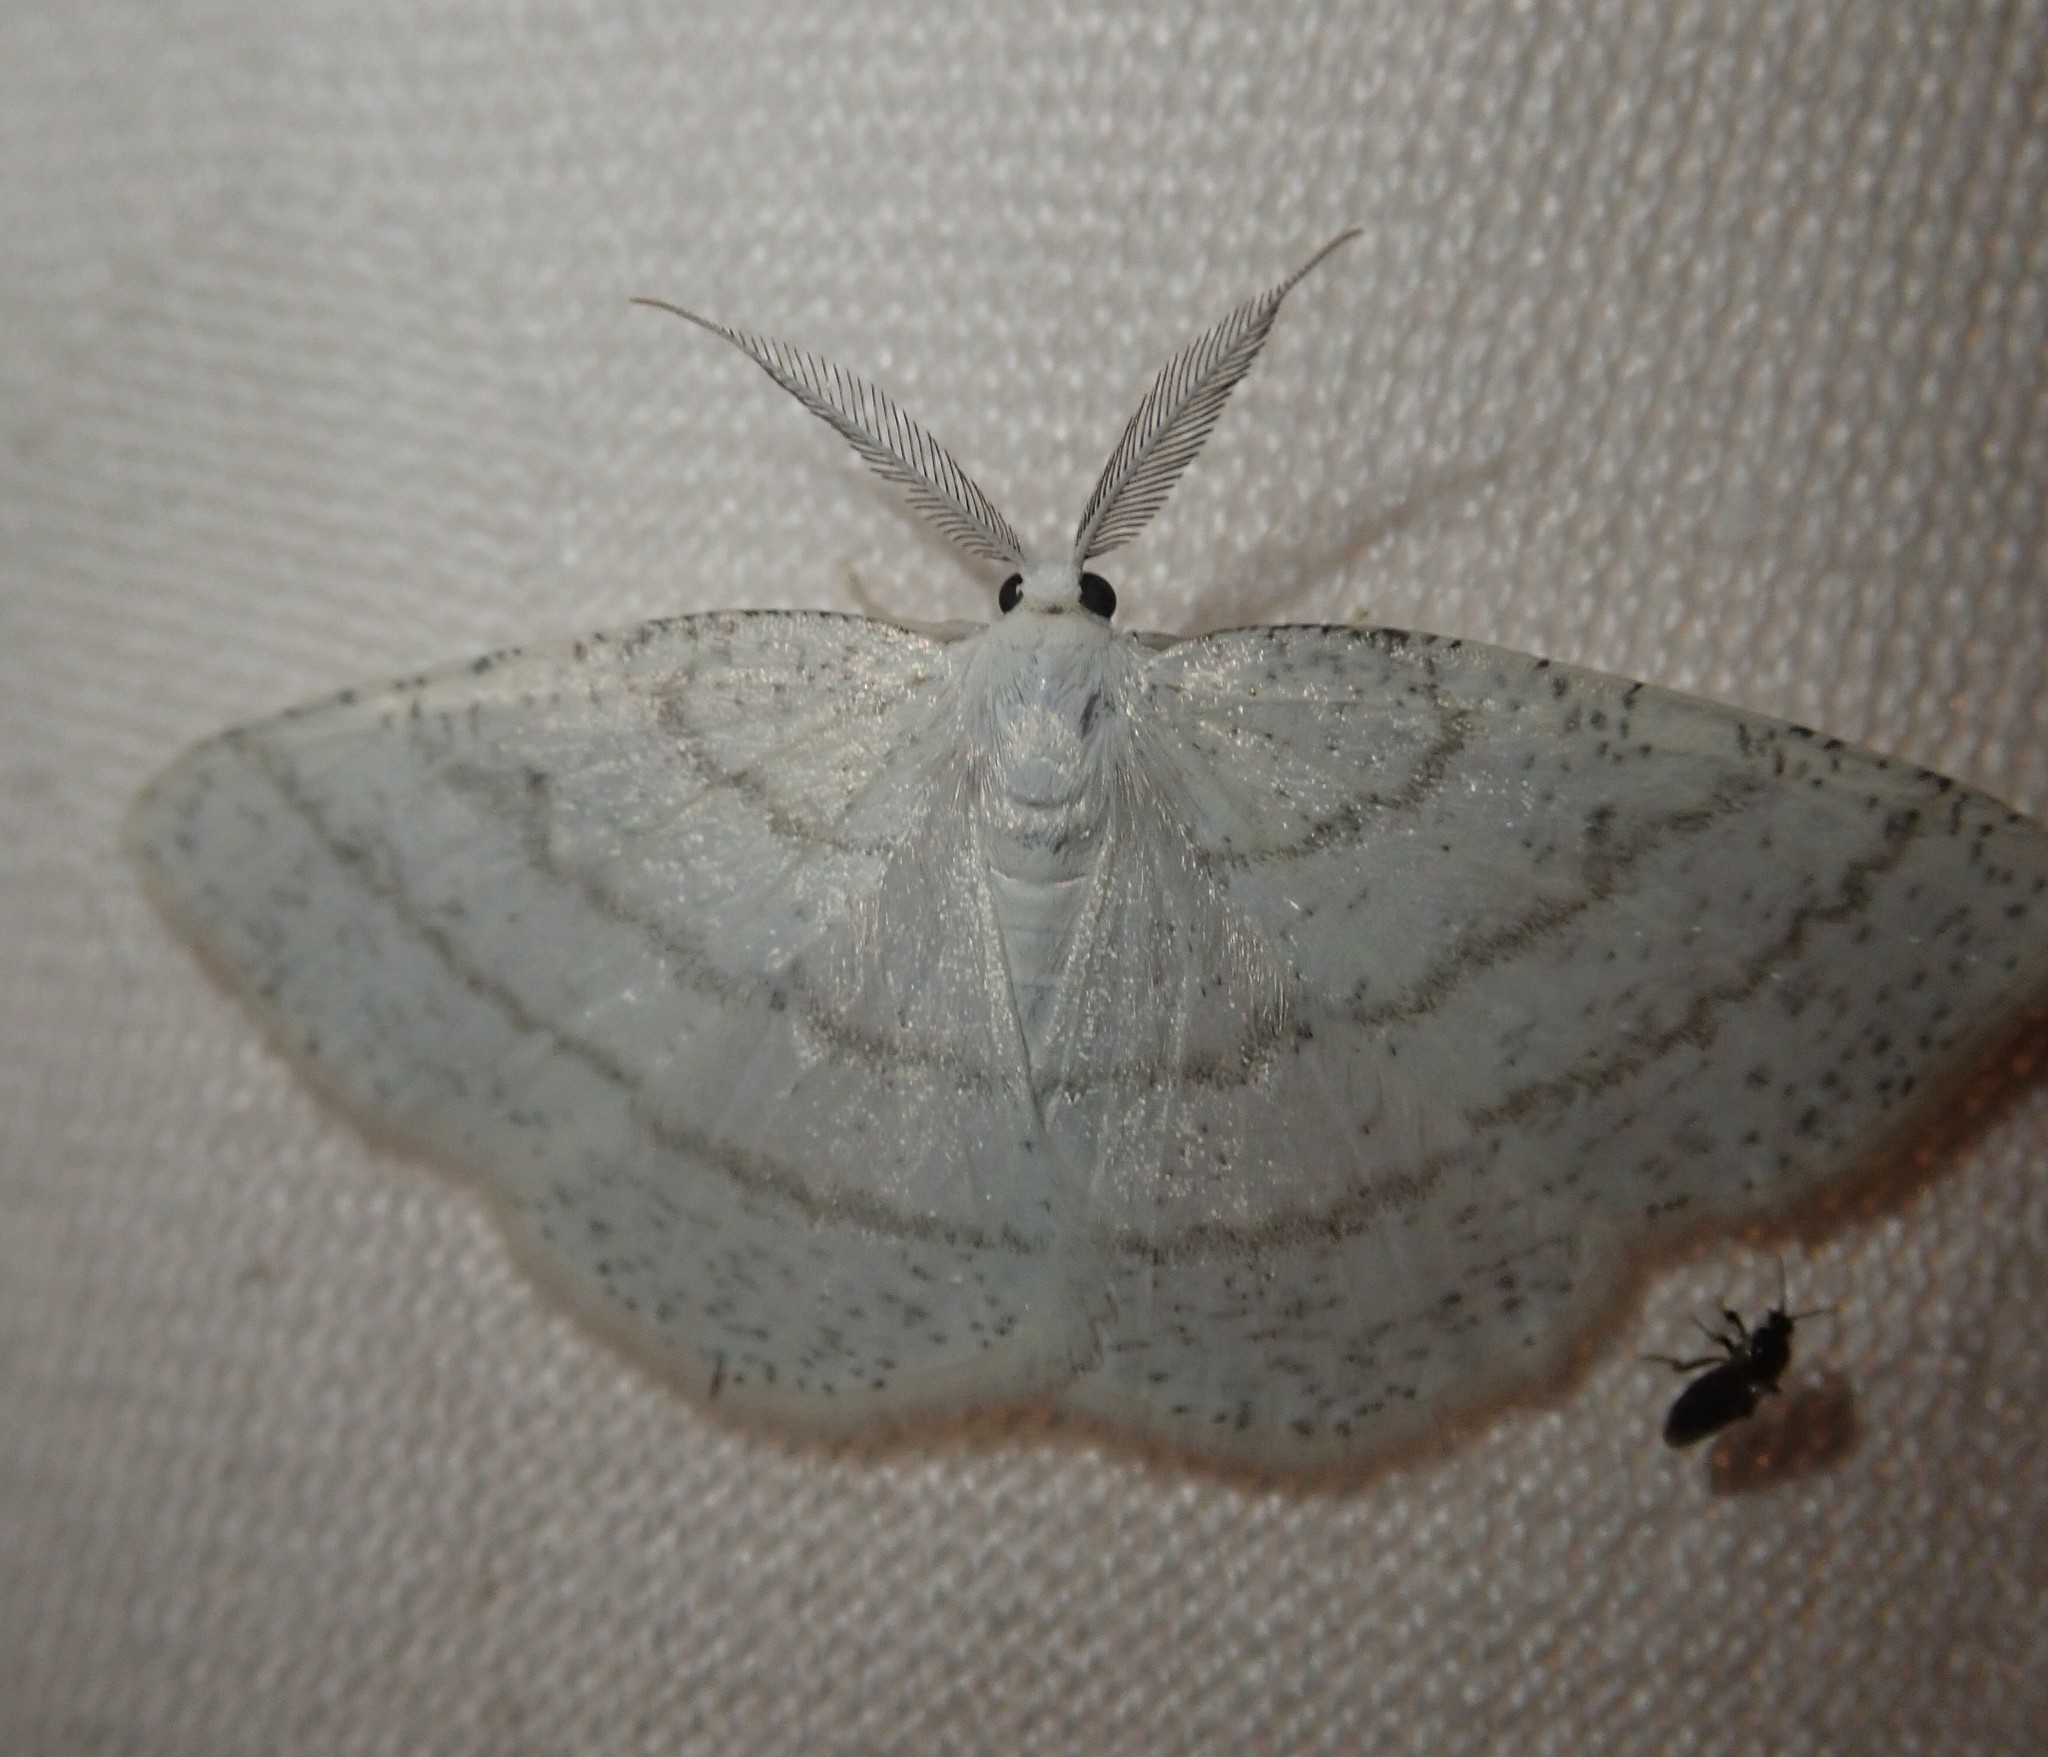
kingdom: Animalia
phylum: Arthropoda
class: Insecta
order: Lepidoptera
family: Geometridae
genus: Cabera
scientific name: Cabera pusaria
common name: Common white wave
